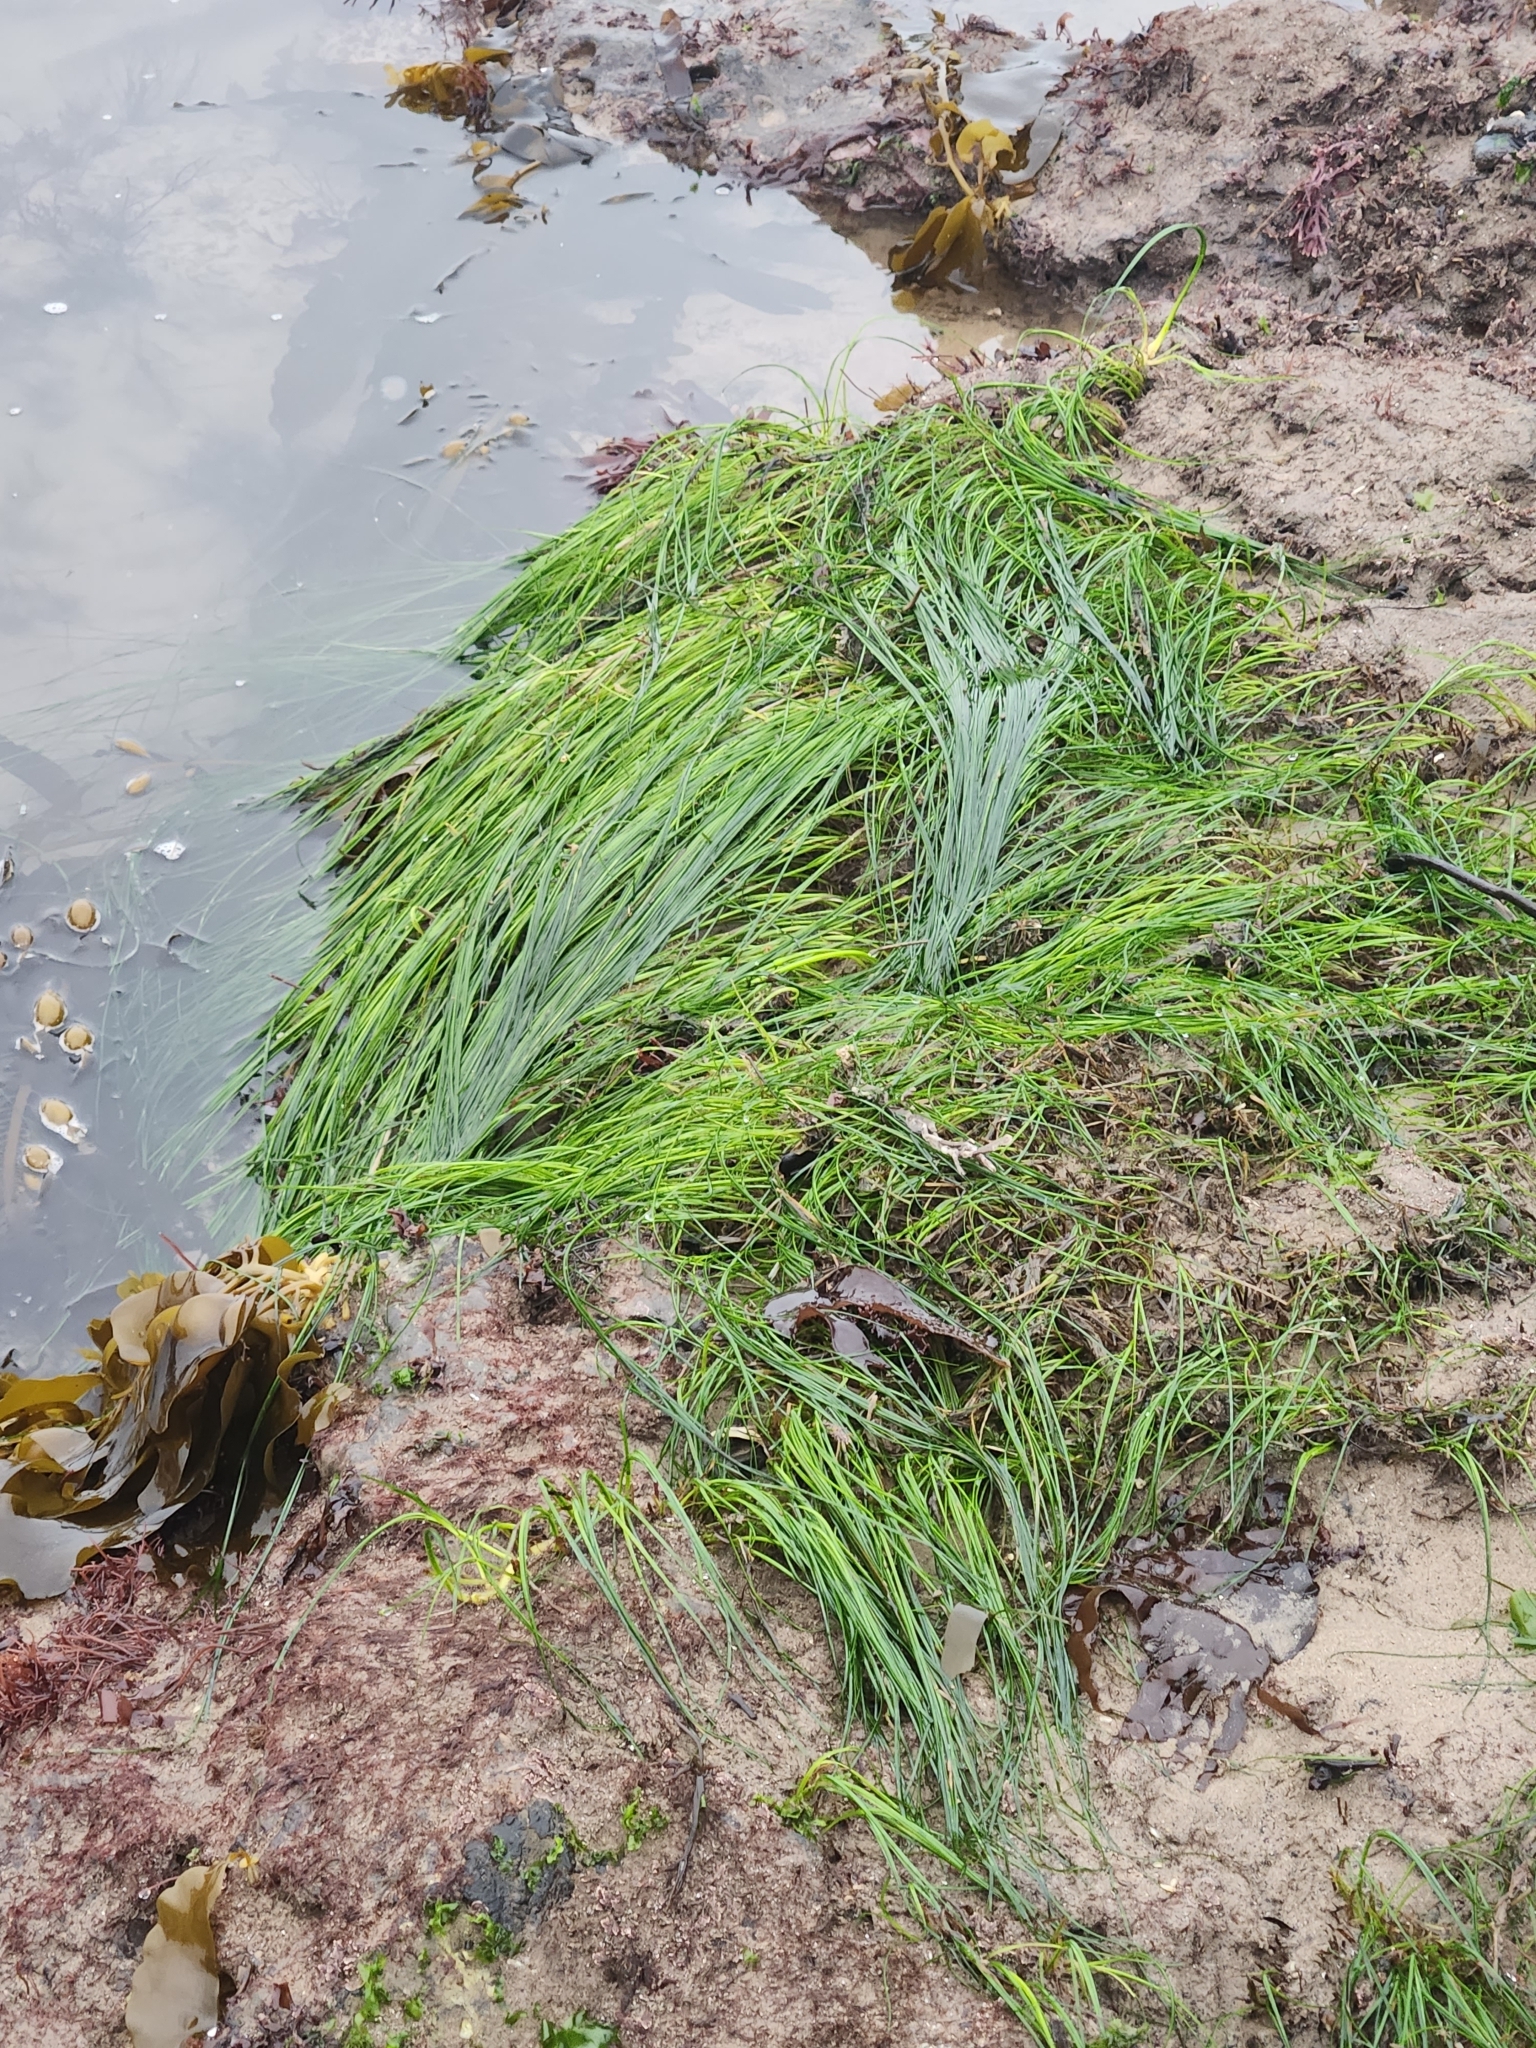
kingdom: Plantae
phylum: Tracheophyta
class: Liliopsida
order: Alismatales
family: Zosteraceae
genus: Phyllospadix
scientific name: Phyllospadix torreyi
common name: Surfgrass
